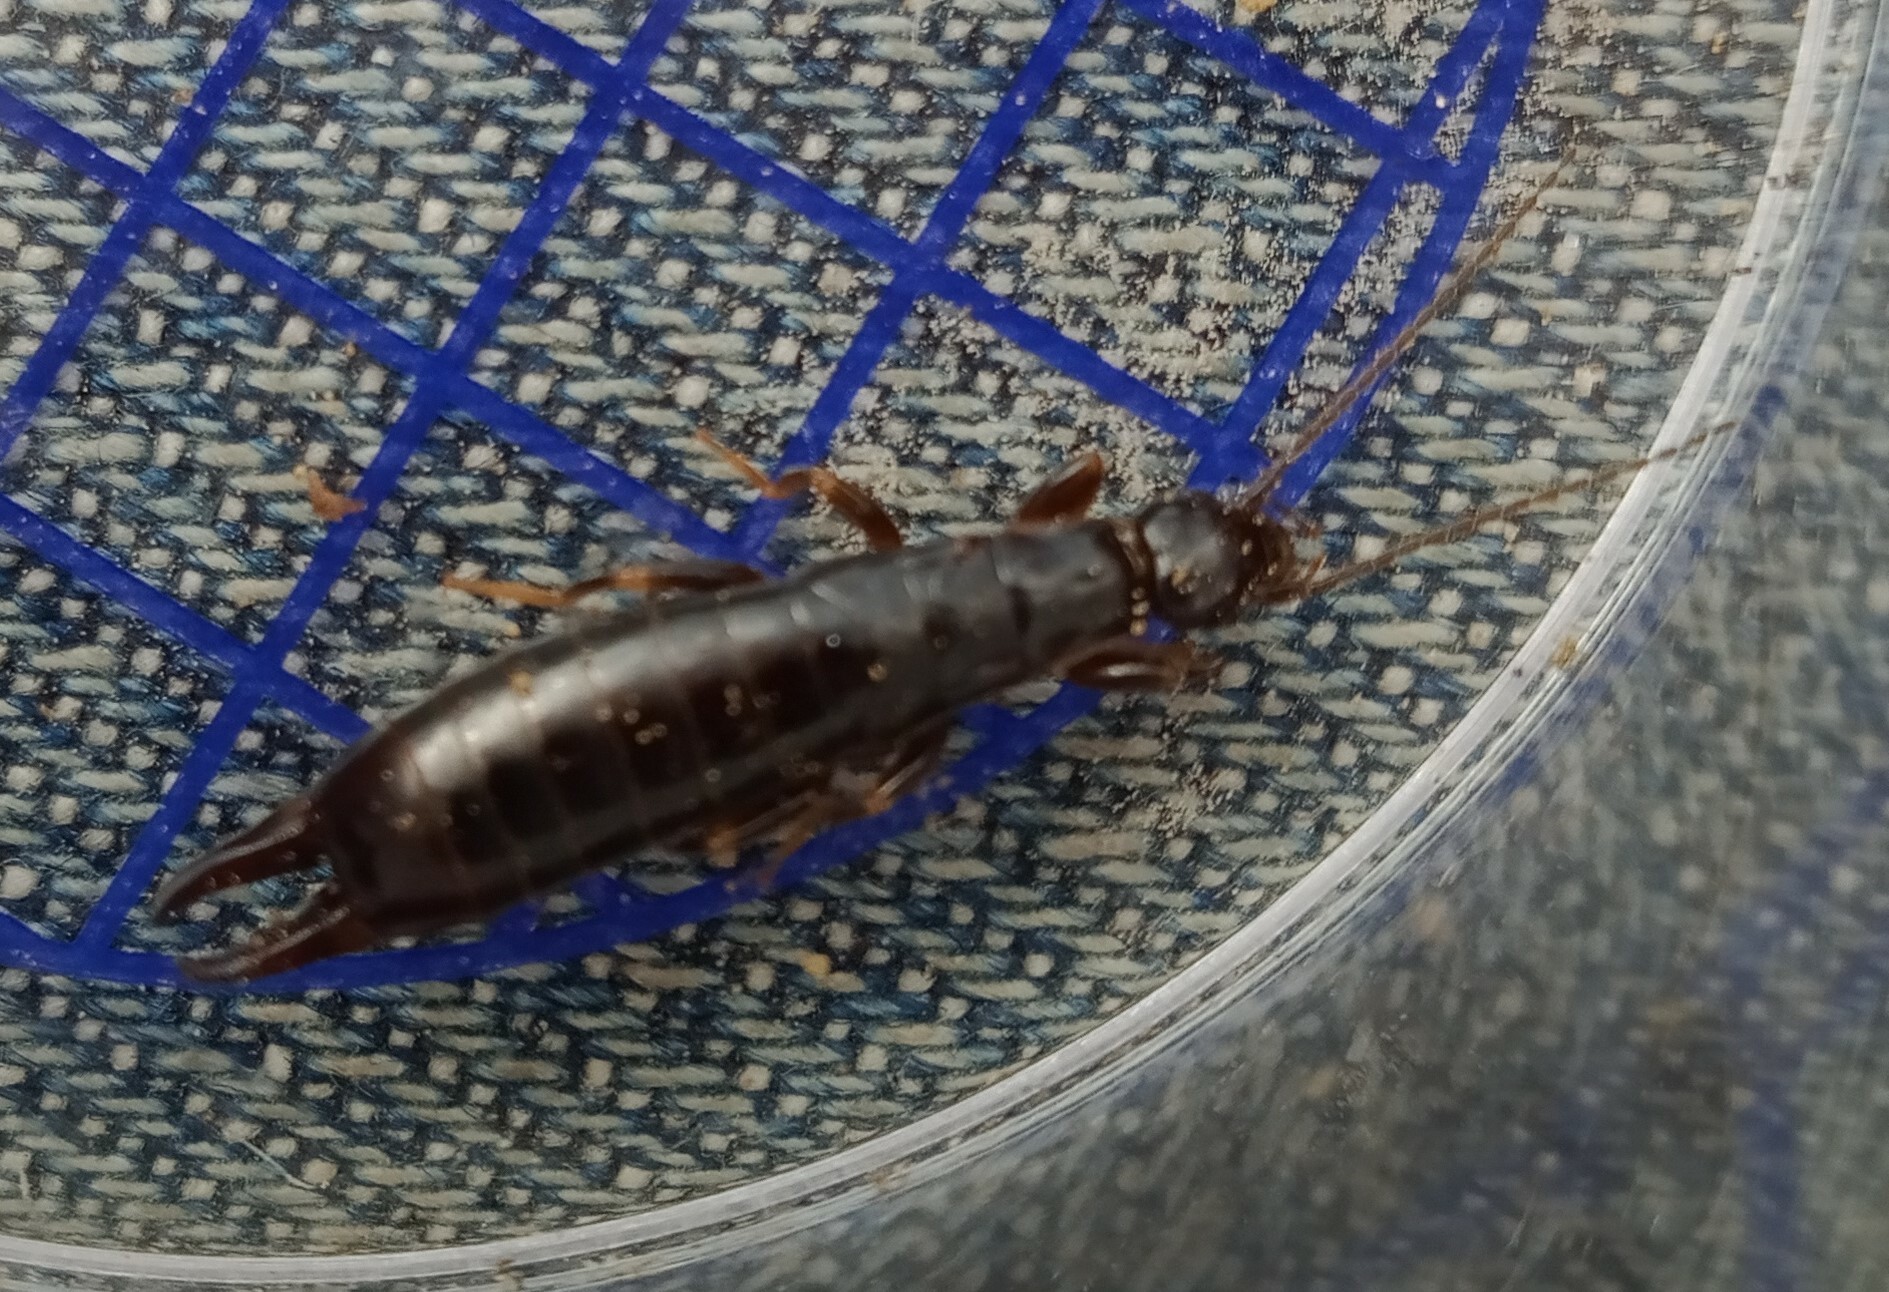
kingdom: Animalia
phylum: Arthropoda
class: Insecta
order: Dermaptera
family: Anisolabididae
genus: Euborellia
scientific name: Euborellia moesta
